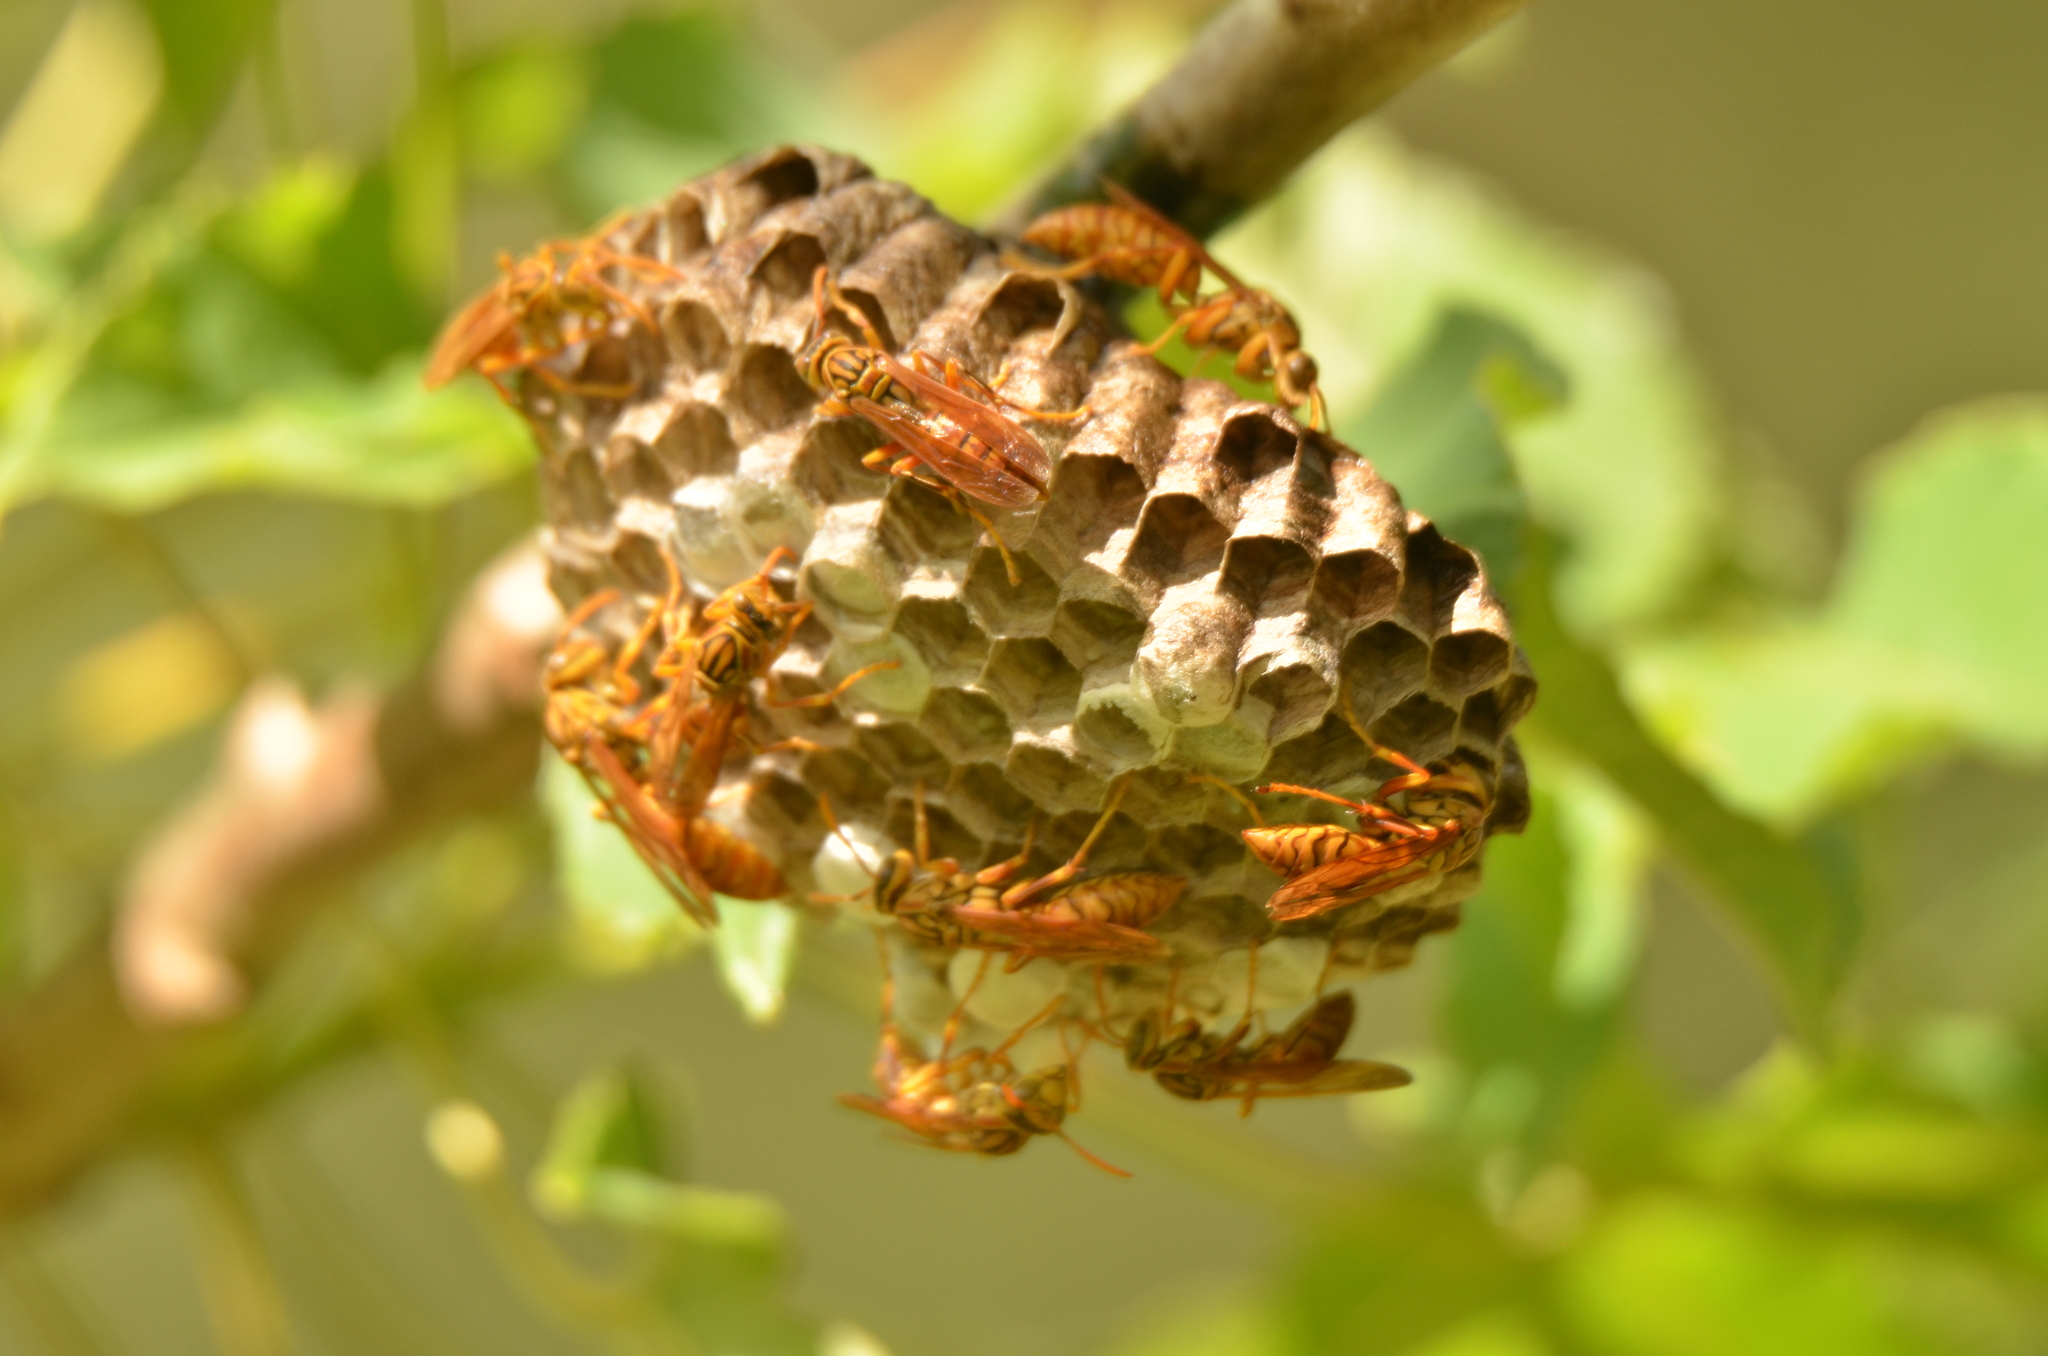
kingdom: Animalia
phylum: Arthropoda
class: Insecta
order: Hymenoptera
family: Eumenidae
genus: Polistes
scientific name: Polistes olivaceus
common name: Paper wasp
